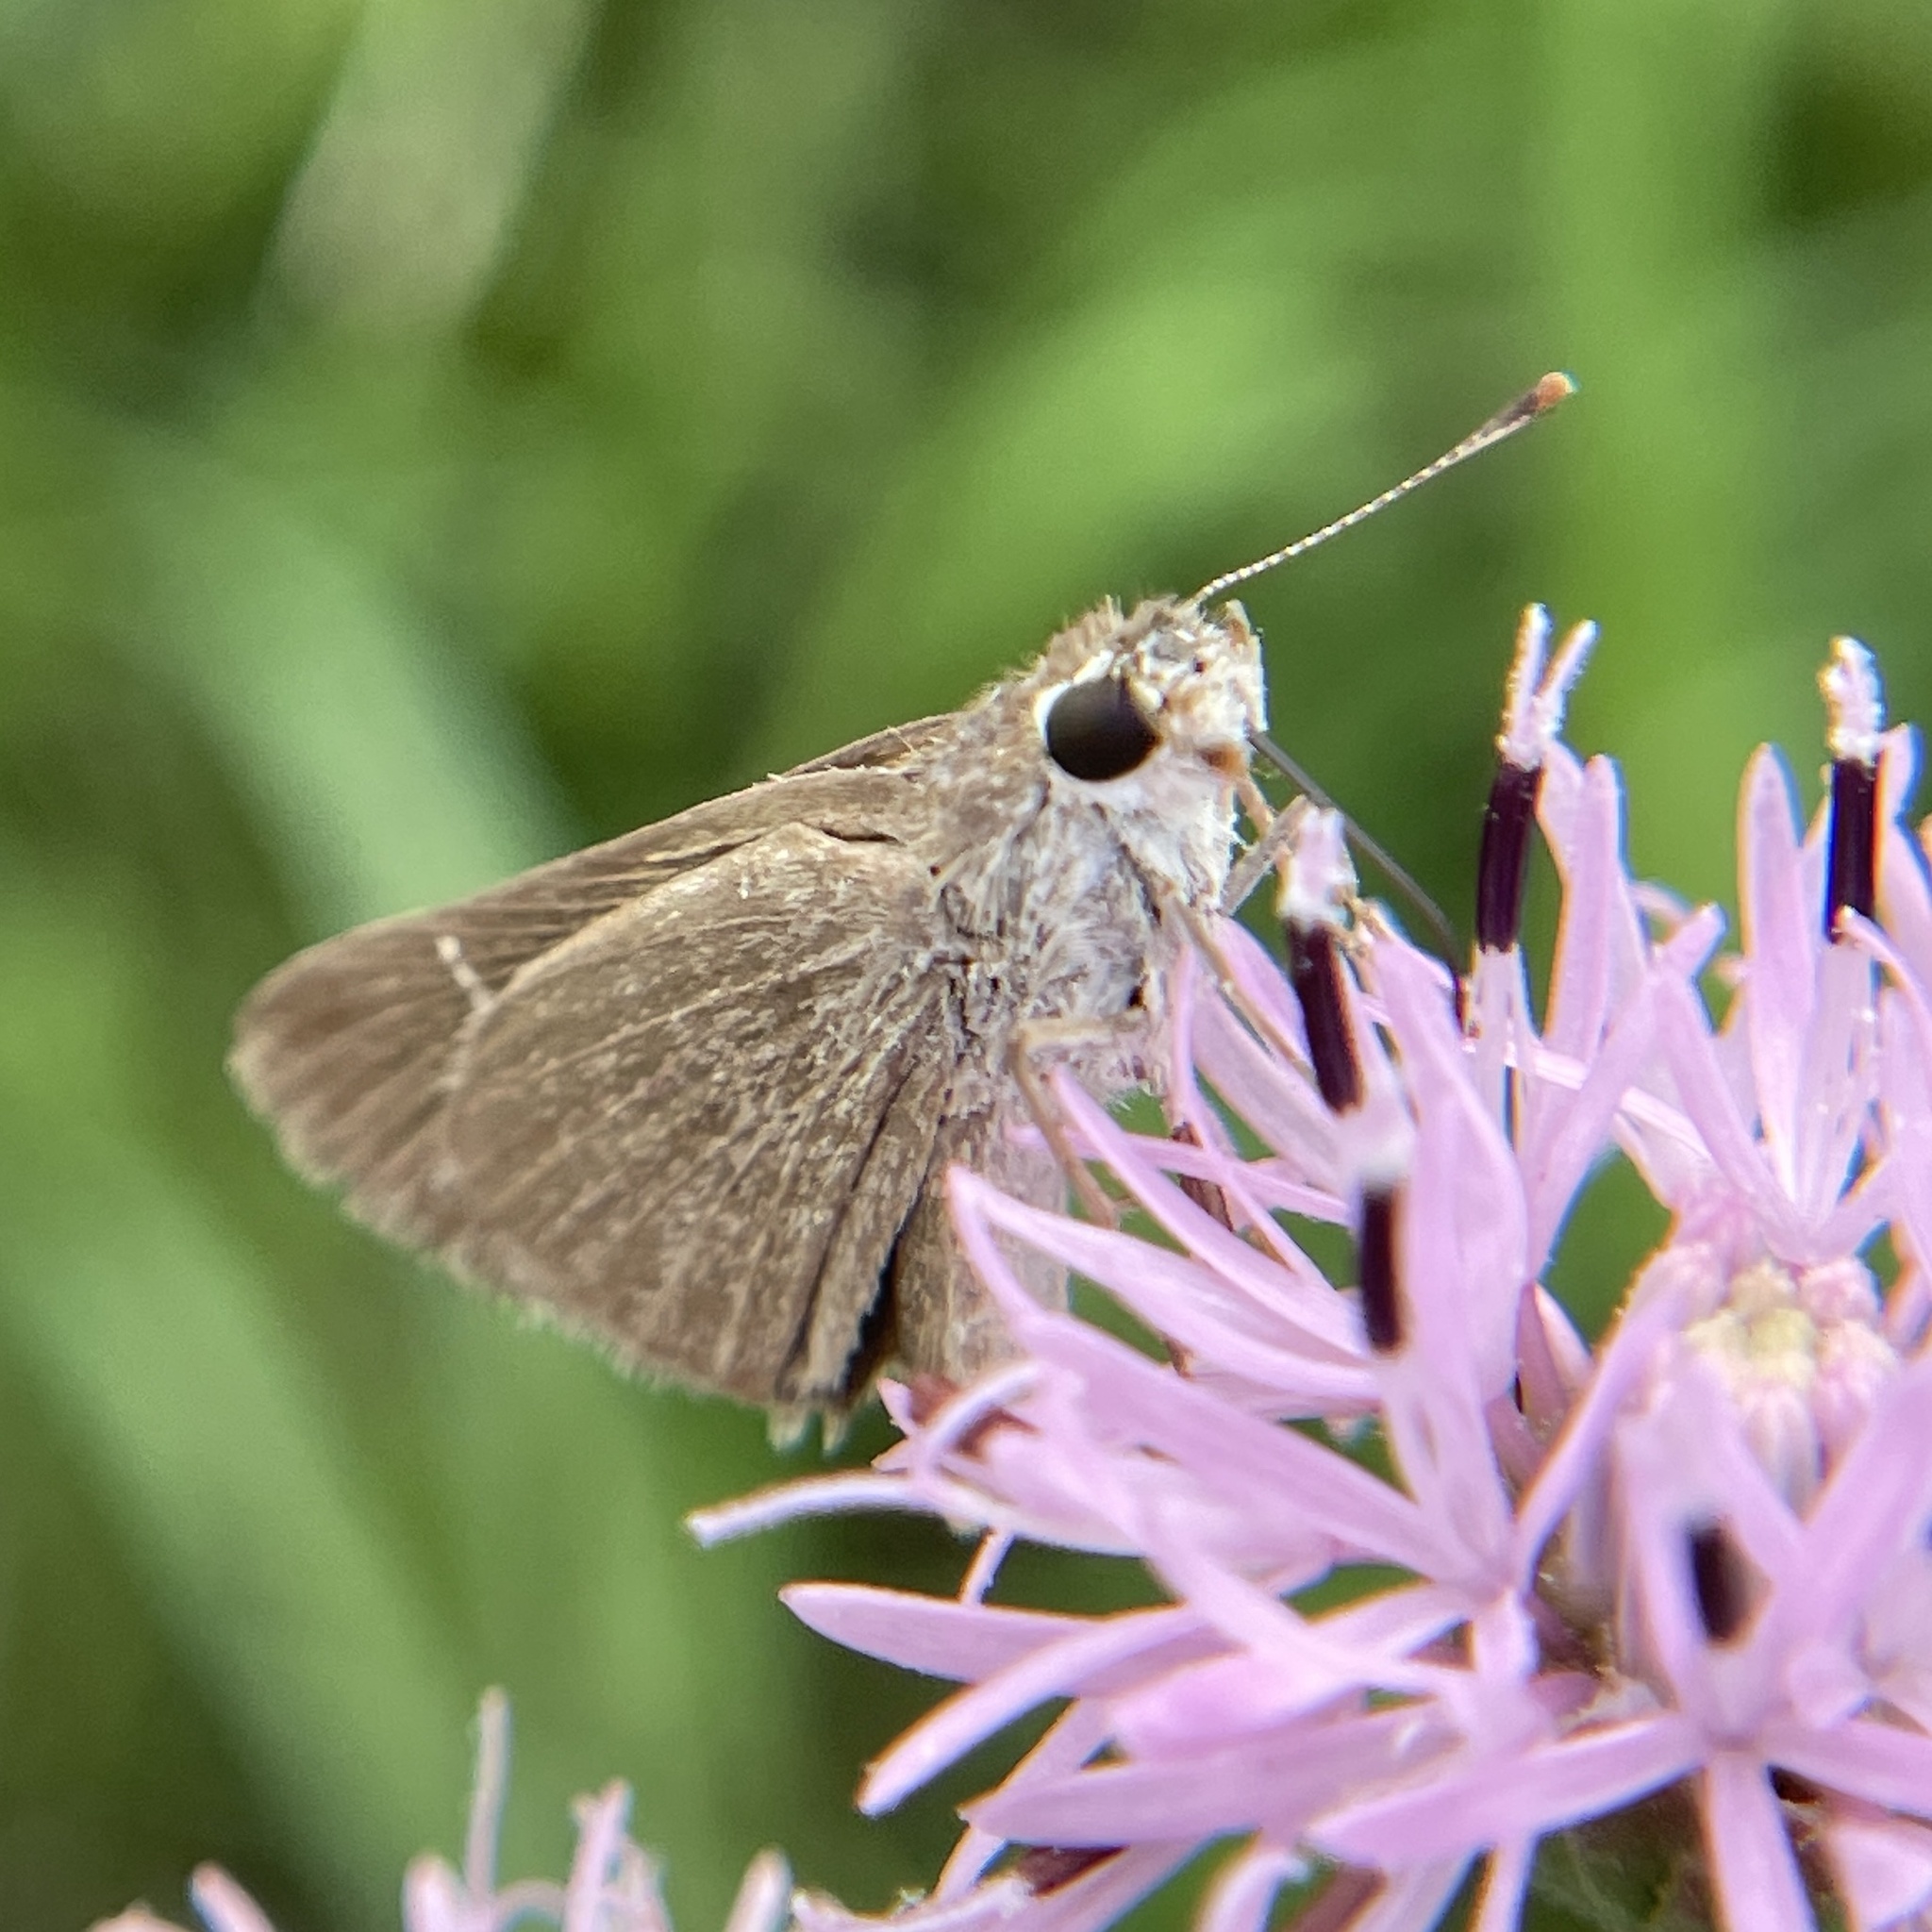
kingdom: Animalia
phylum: Arthropoda
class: Insecta
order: Lepidoptera
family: Hesperiidae
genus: Lerodea
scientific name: Lerodea eufala
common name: Eufala skipper
